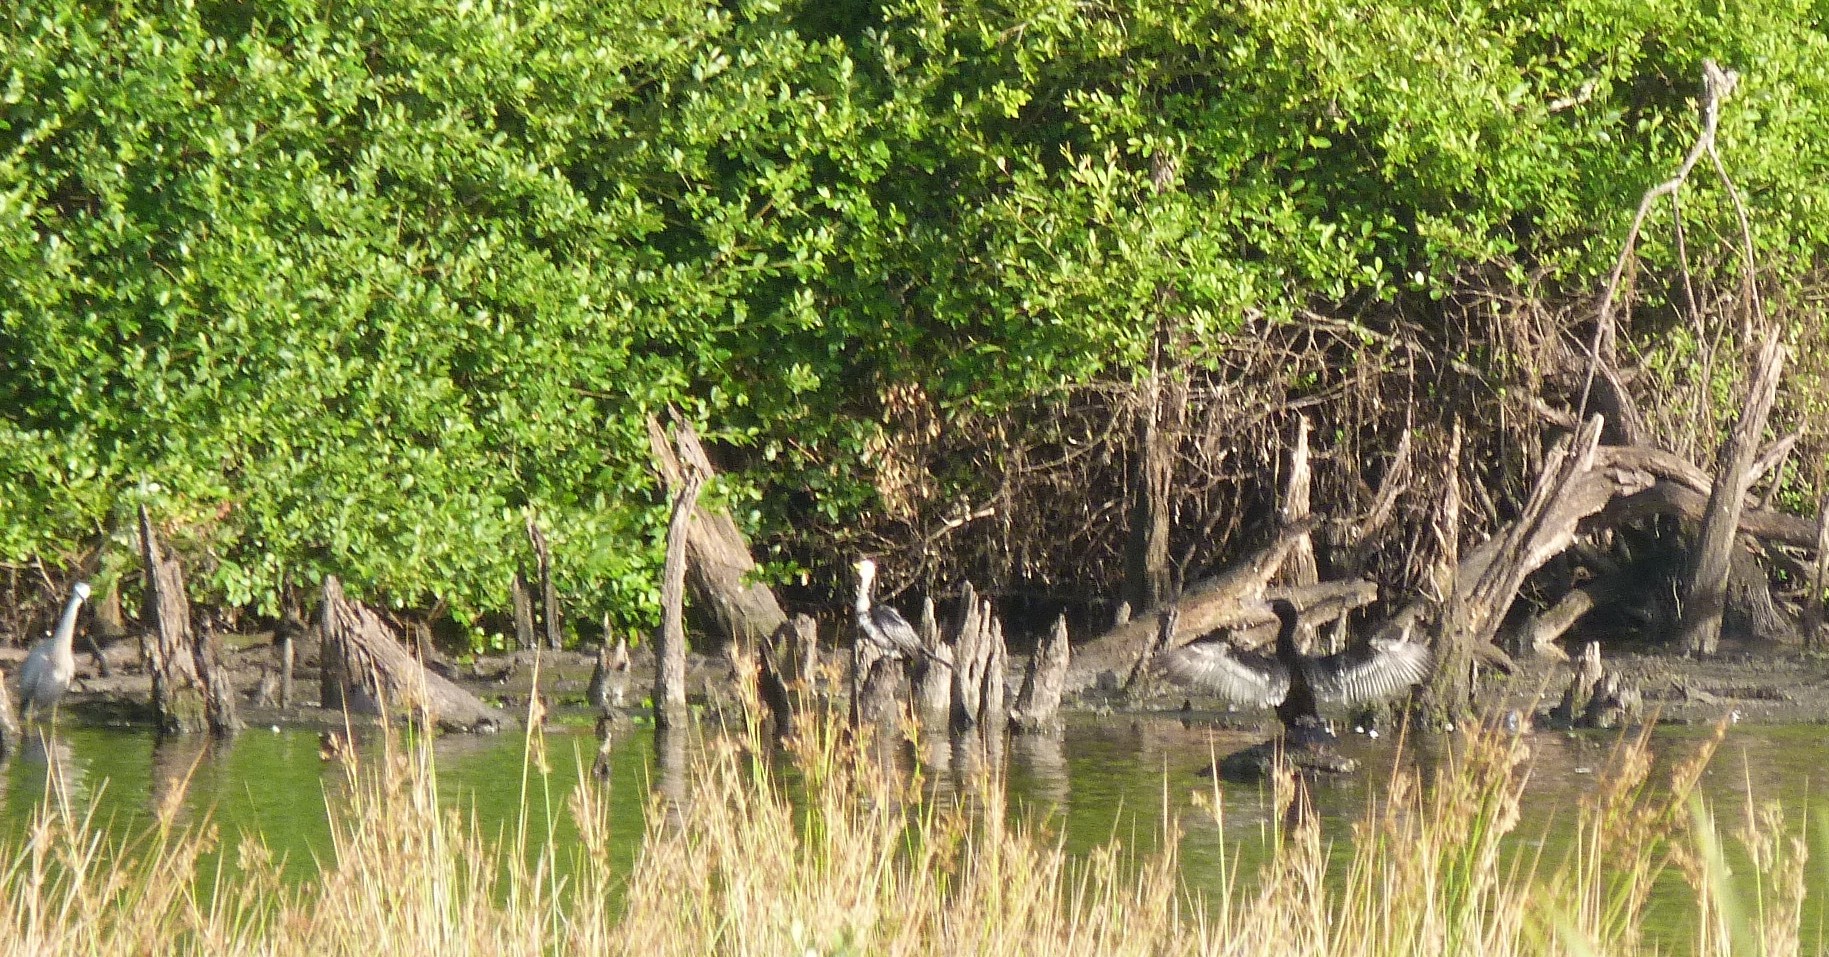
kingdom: Animalia
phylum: Chordata
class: Aves
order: Suliformes
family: Phalacrocoracidae
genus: Microcarbo
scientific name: Microcarbo melanoleucos
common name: Little pied cormorant
